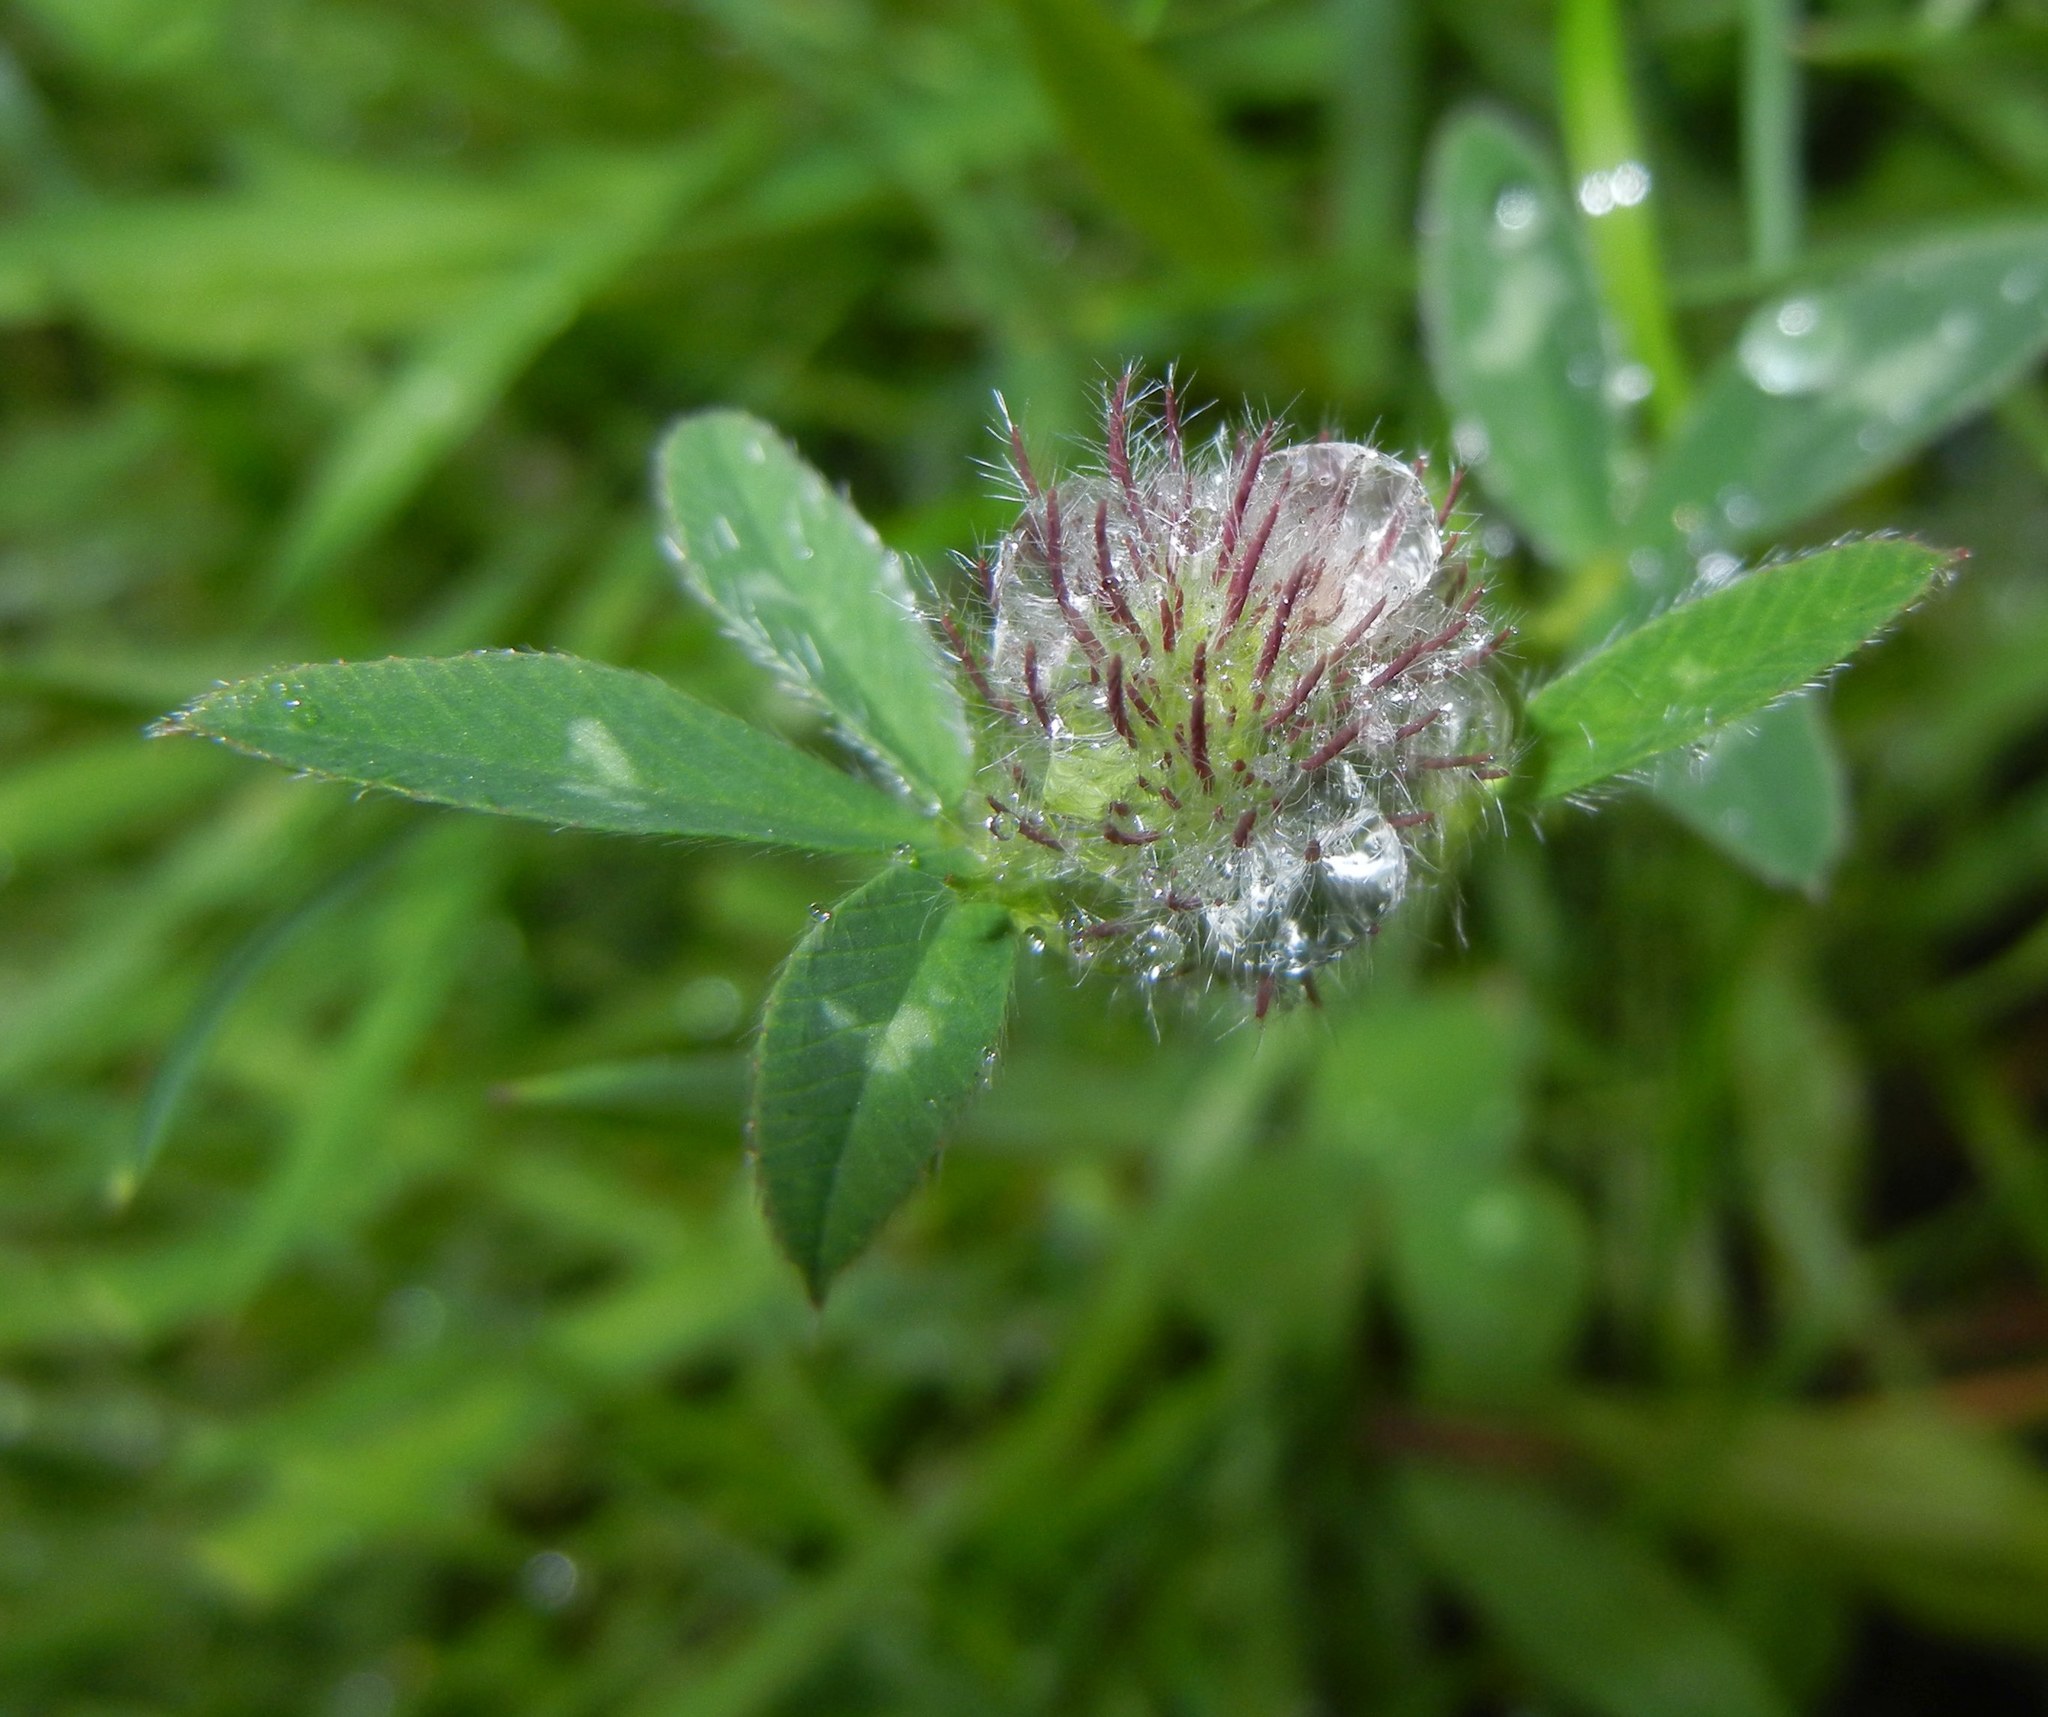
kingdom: Plantae
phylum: Tracheophyta
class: Magnoliopsida
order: Fabales
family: Fabaceae
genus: Trifolium
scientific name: Trifolium pratense
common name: Red clover
